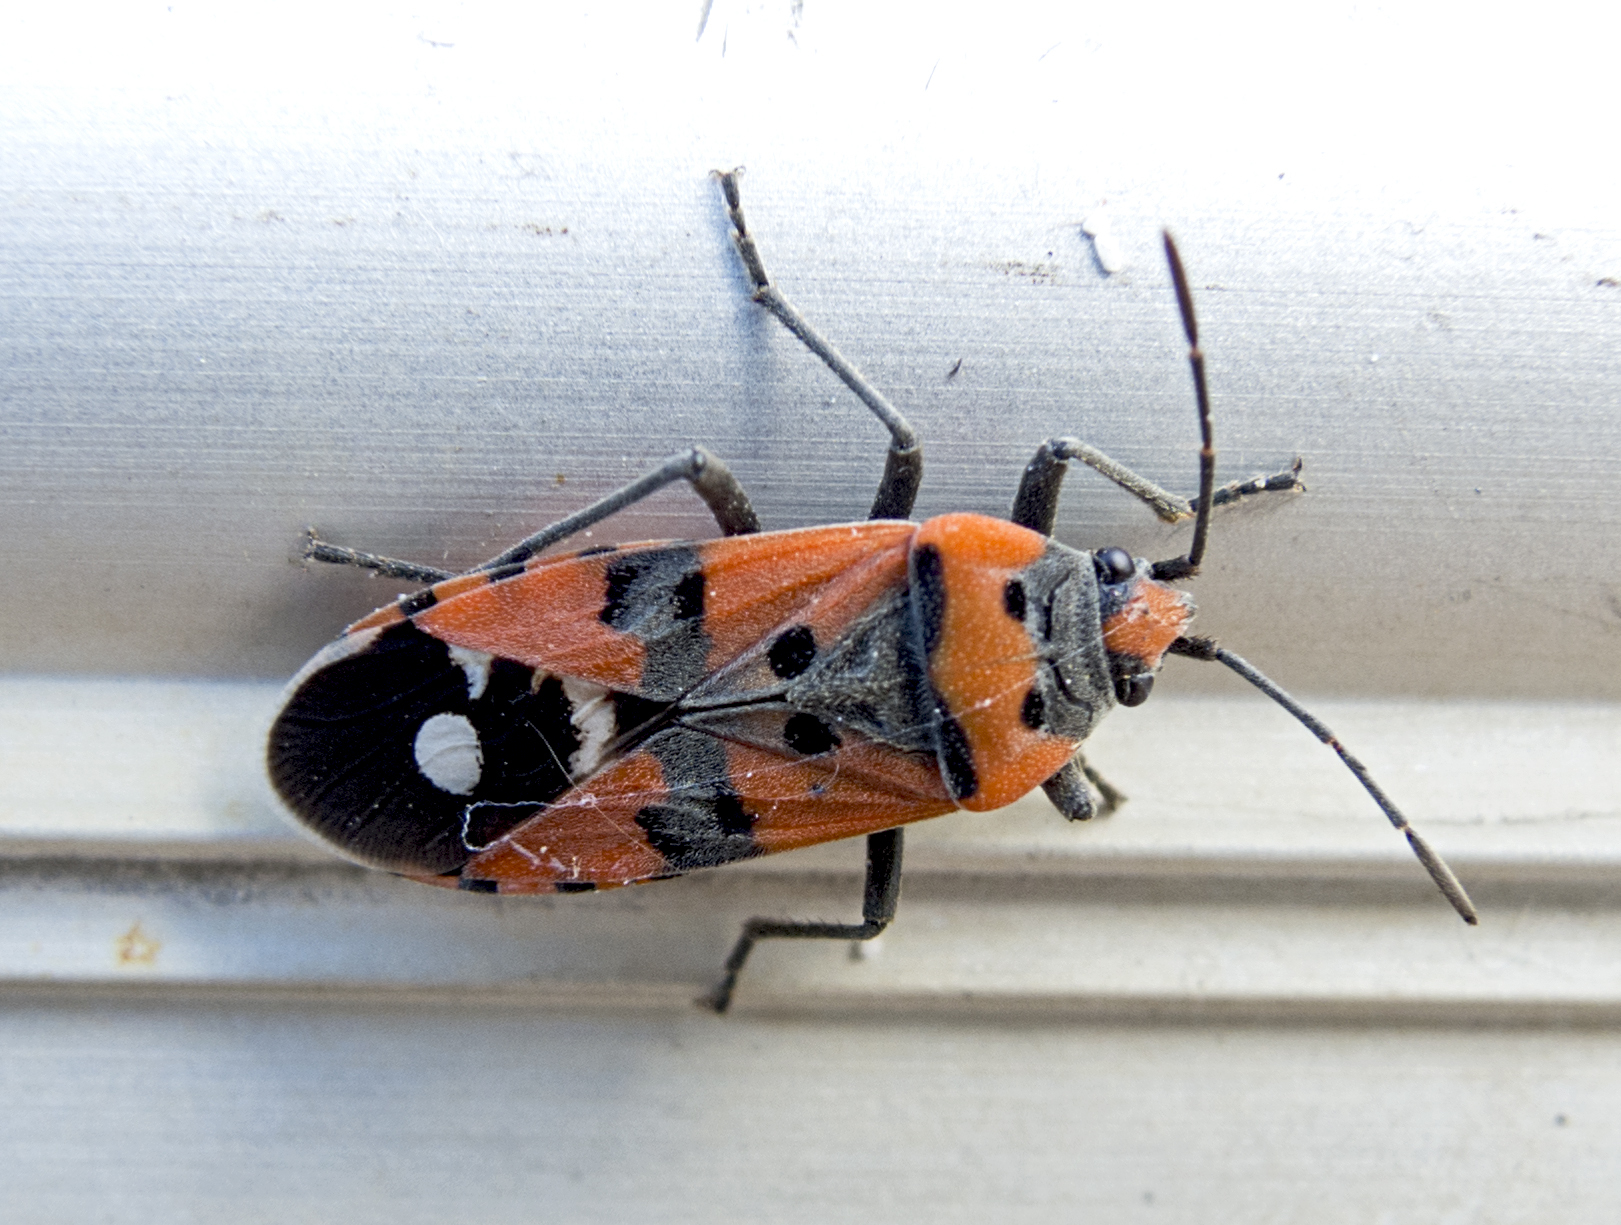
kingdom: Animalia
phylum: Arthropoda
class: Insecta
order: Hemiptera
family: Lygaeidae
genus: Lygaeus
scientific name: Lygaeus equestris
